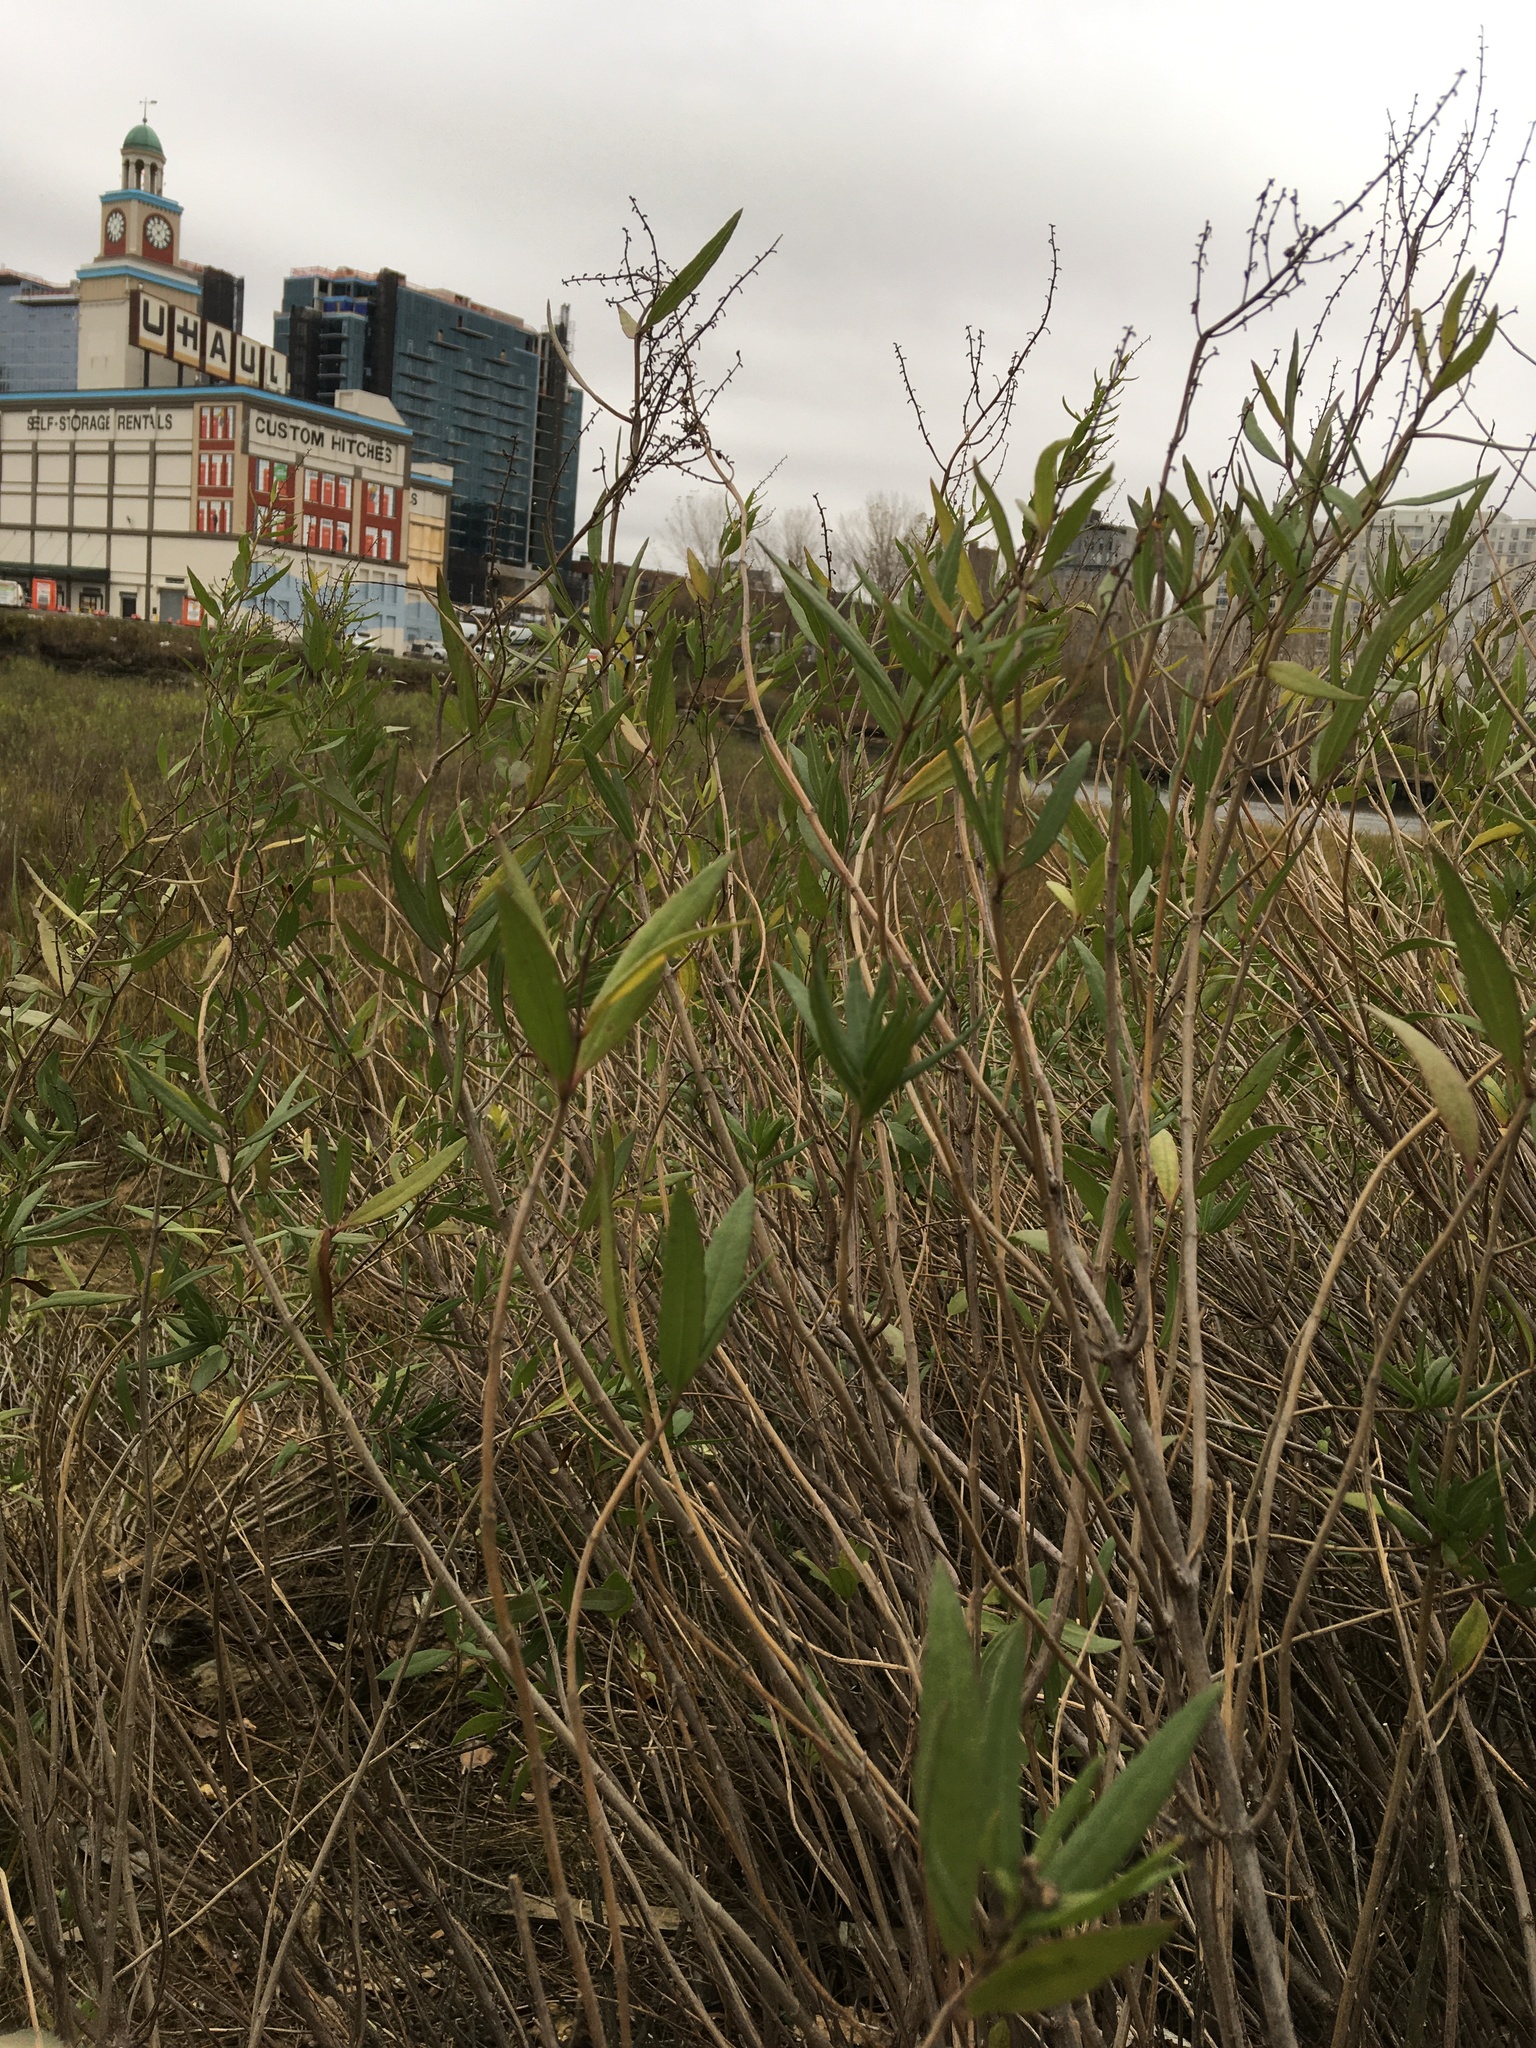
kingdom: Plantae
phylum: Tracheophyta
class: Magnoliopsida
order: Asterales
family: Asteraceae
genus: Iva
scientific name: Iva frutescens
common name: Big-leaved marsh-elder
